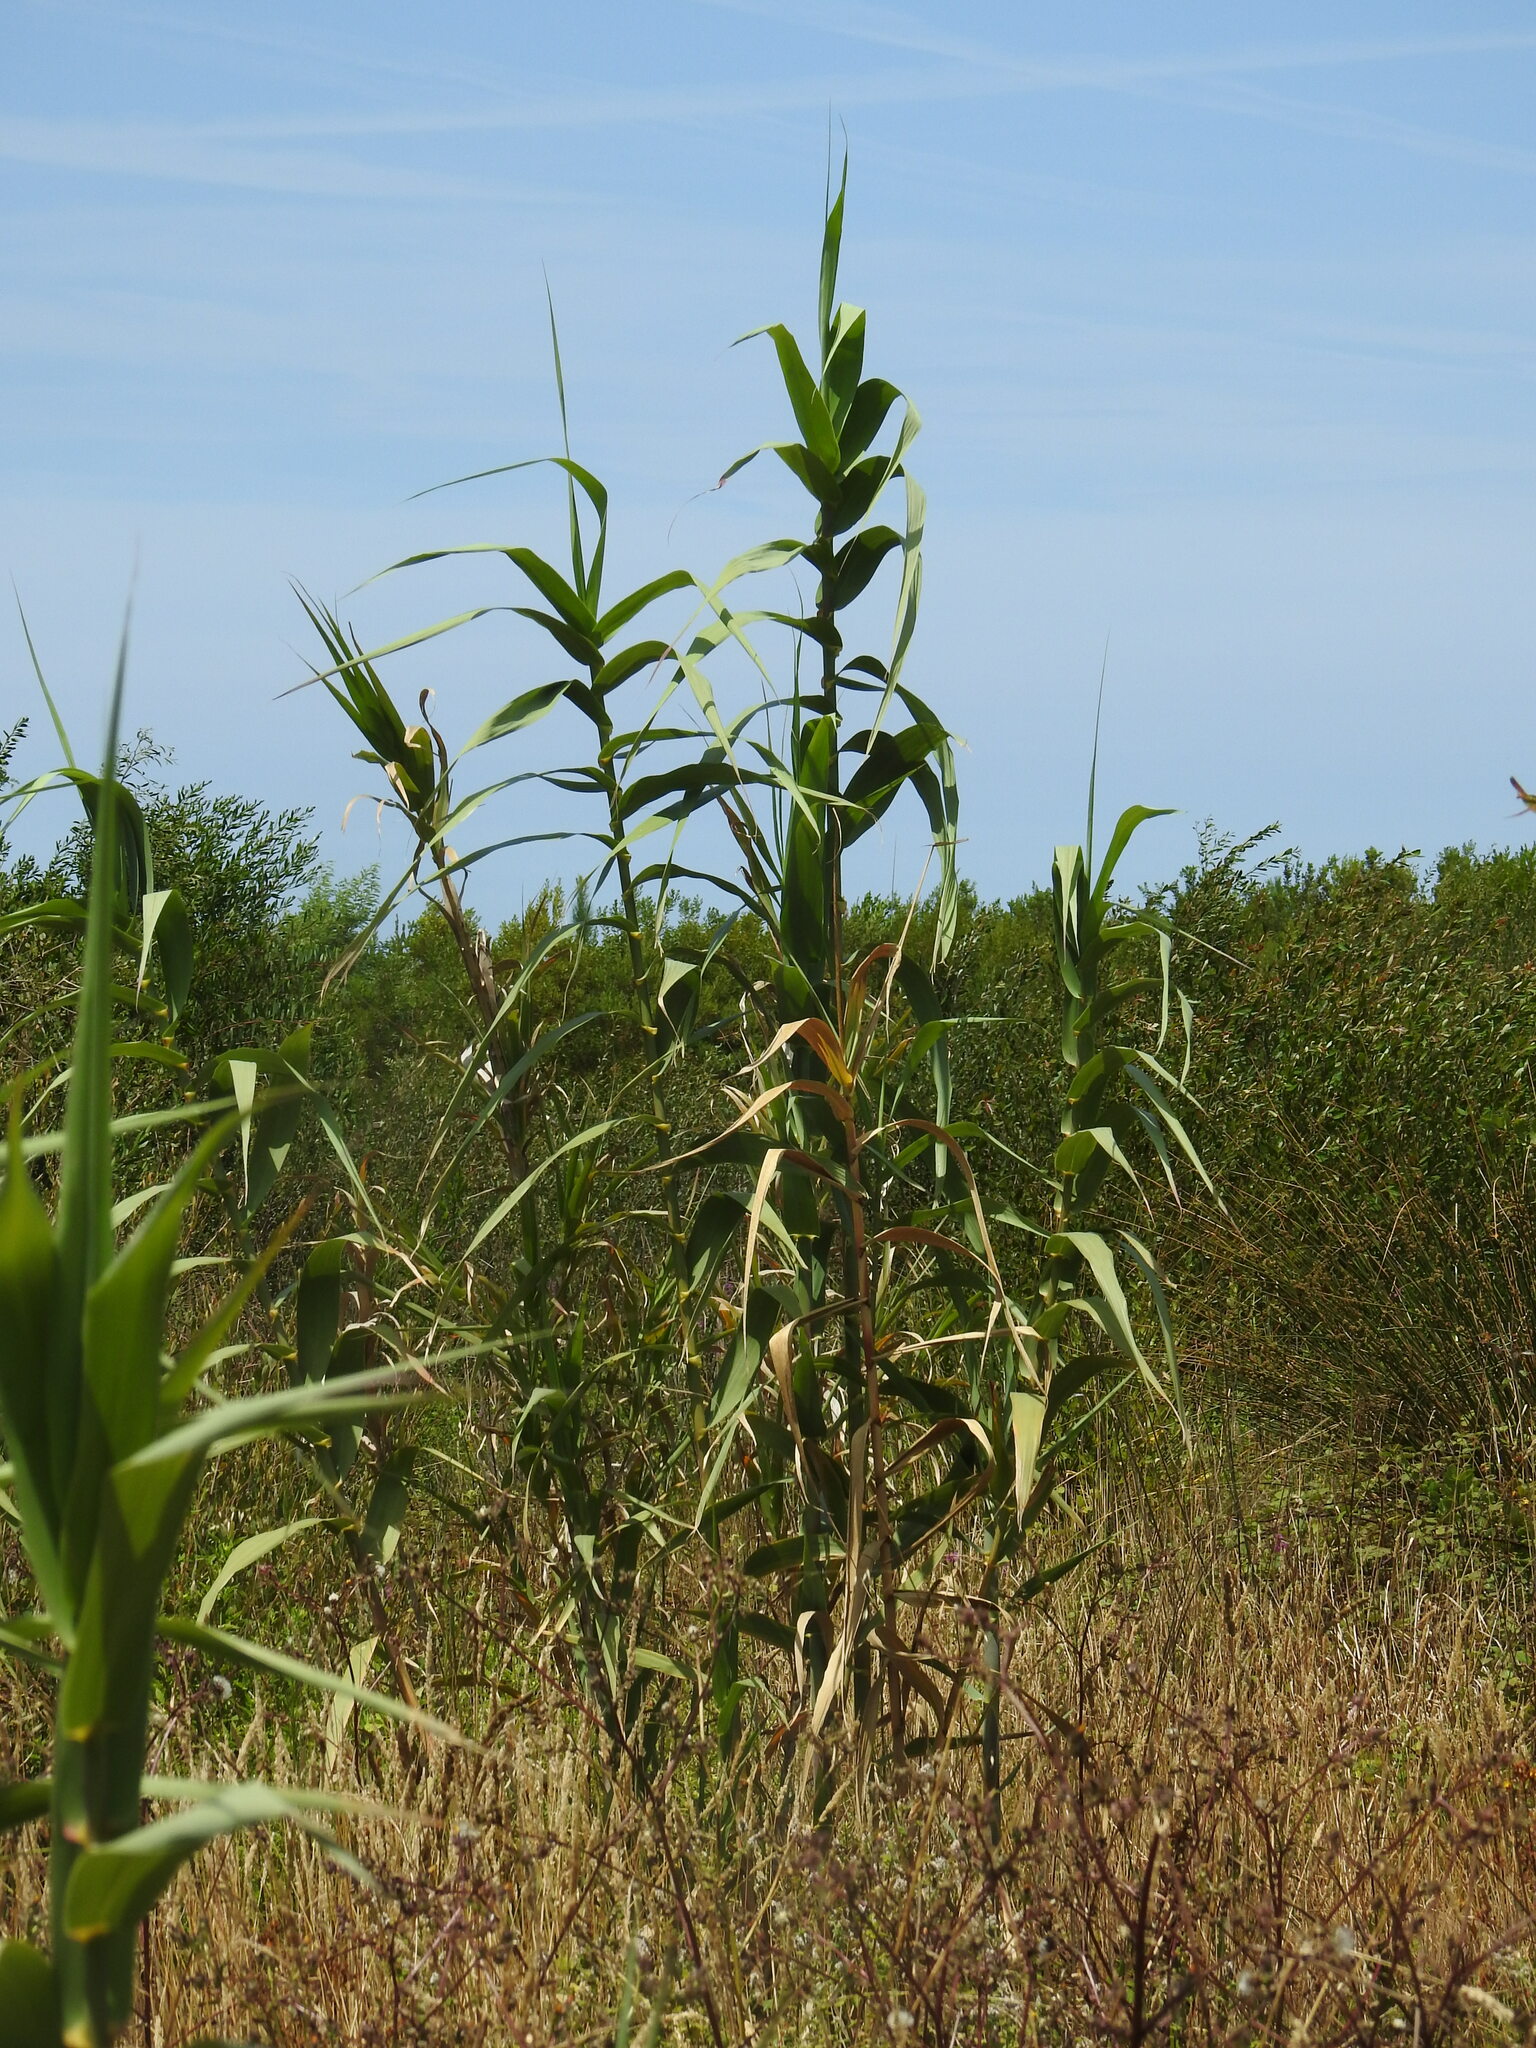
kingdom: Plantae
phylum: Tracheophyta
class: Liliopsida
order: Poales
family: Poaceae
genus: Arundo
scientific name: Arundo donax
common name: Giant reed
